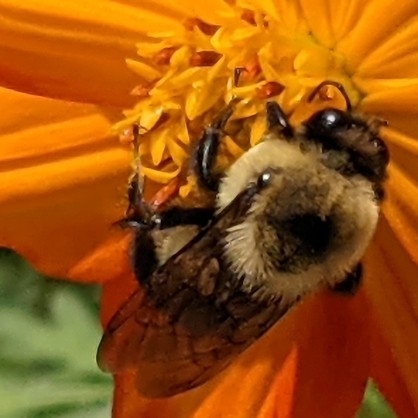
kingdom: Animalia
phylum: Arthropoda
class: Insecta
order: Hymenoptera
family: Apidae
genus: Bombus
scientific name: Bombus griseocollis
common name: Brown-belted bumble bee
